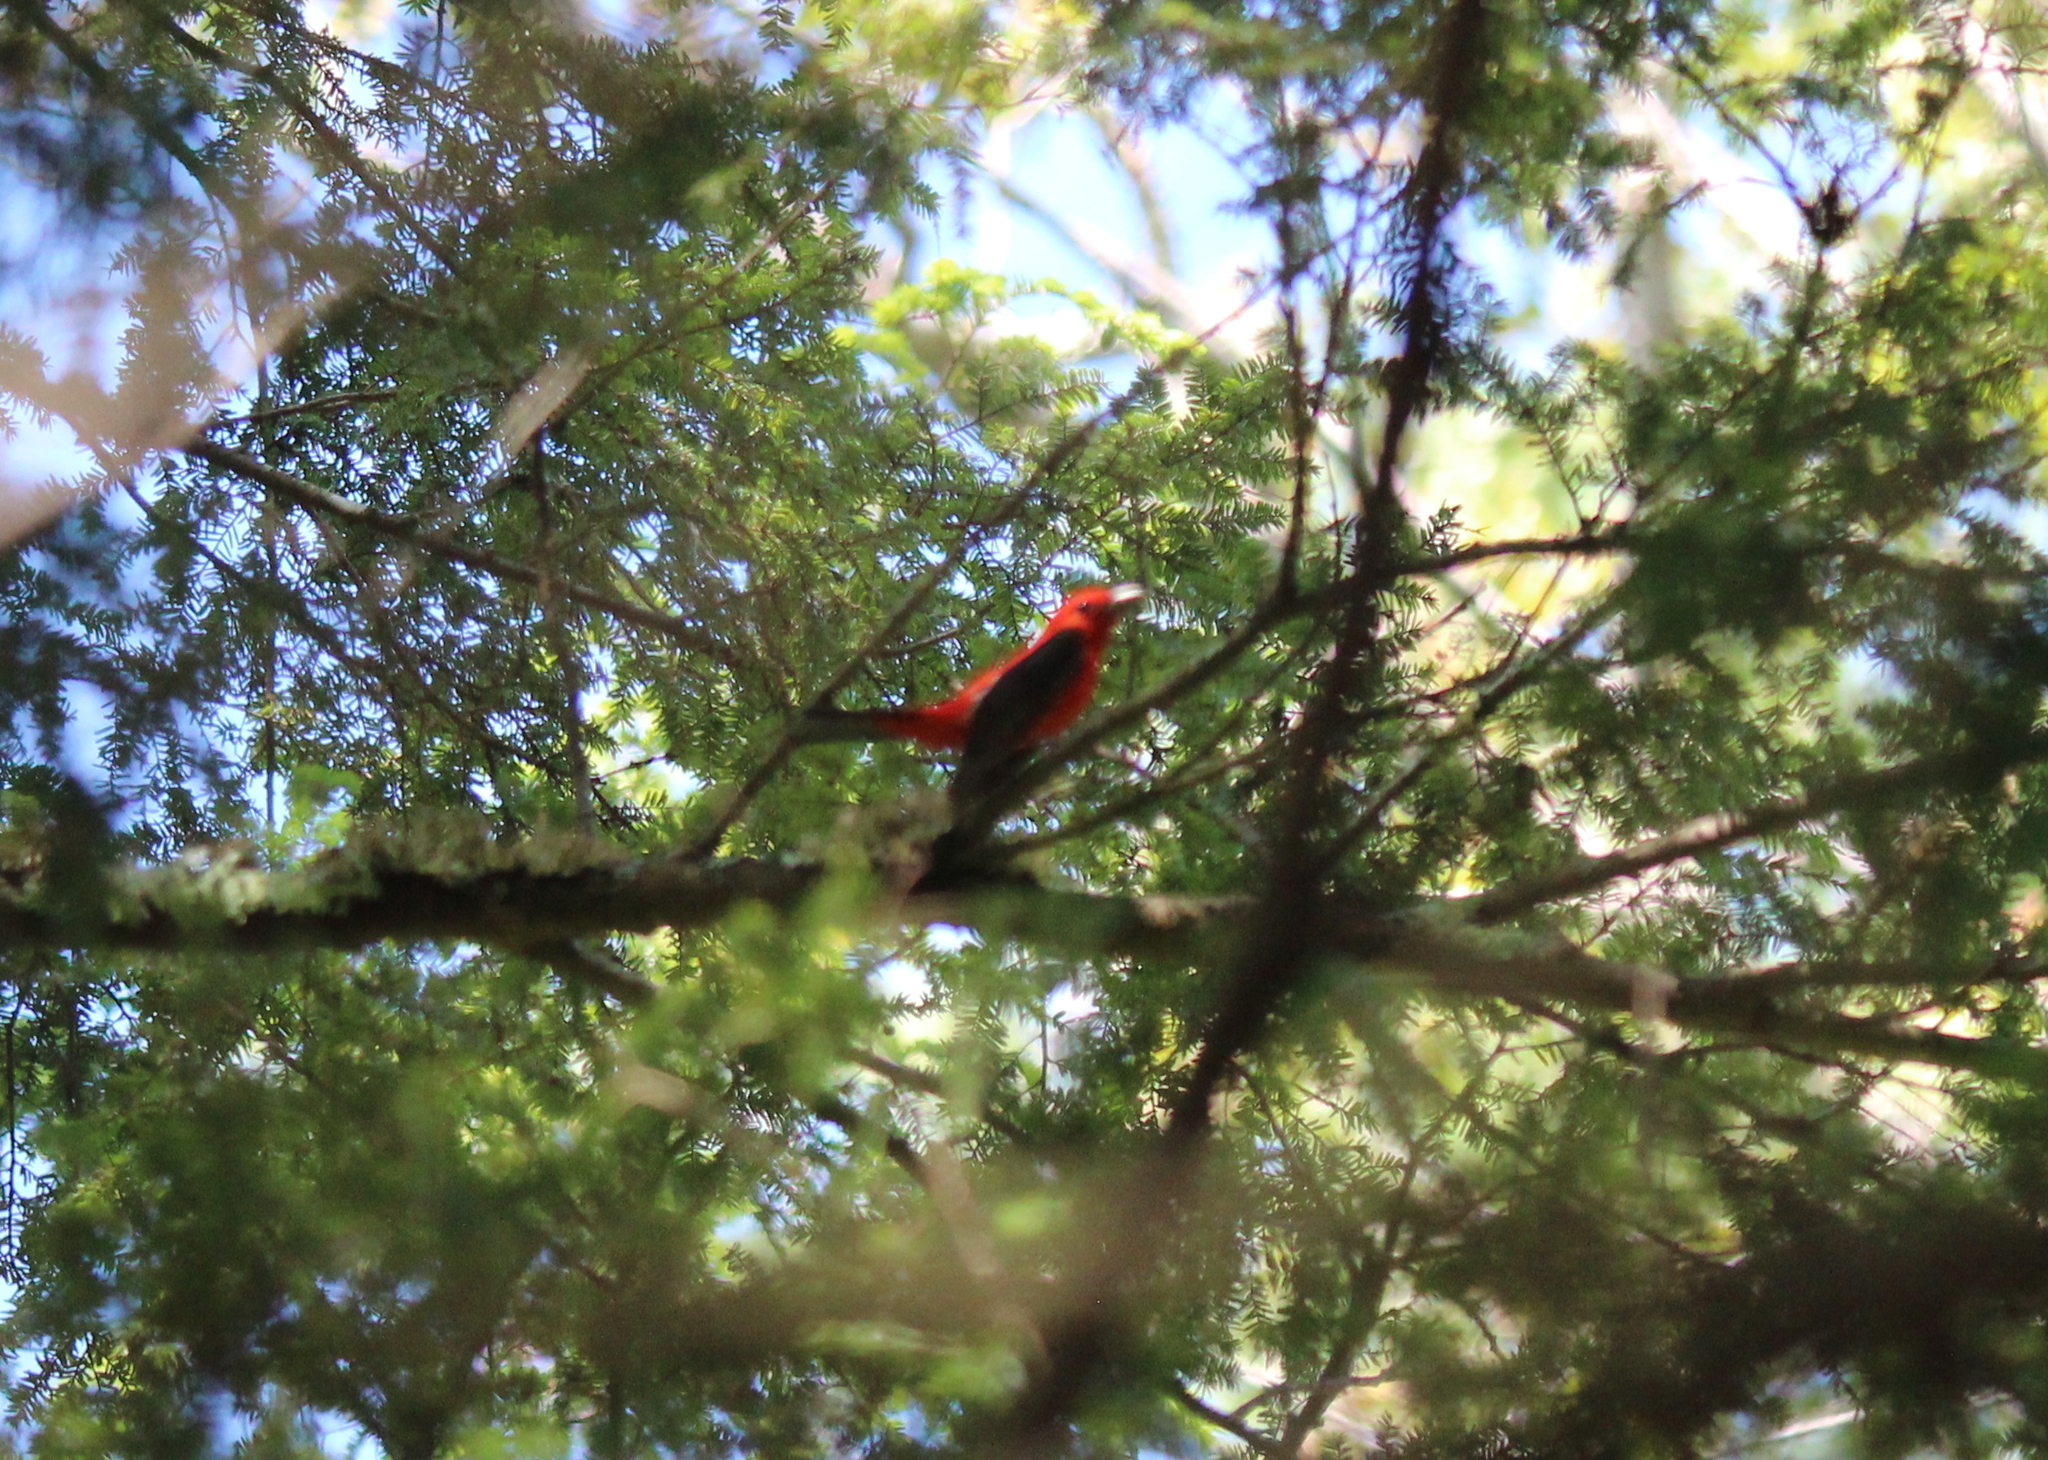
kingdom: Animalia
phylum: Chordata
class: Aves
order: Passeriformes
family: Cardinalidae
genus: Piranga
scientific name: Piranga olivacea
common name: Scarlet tanager
